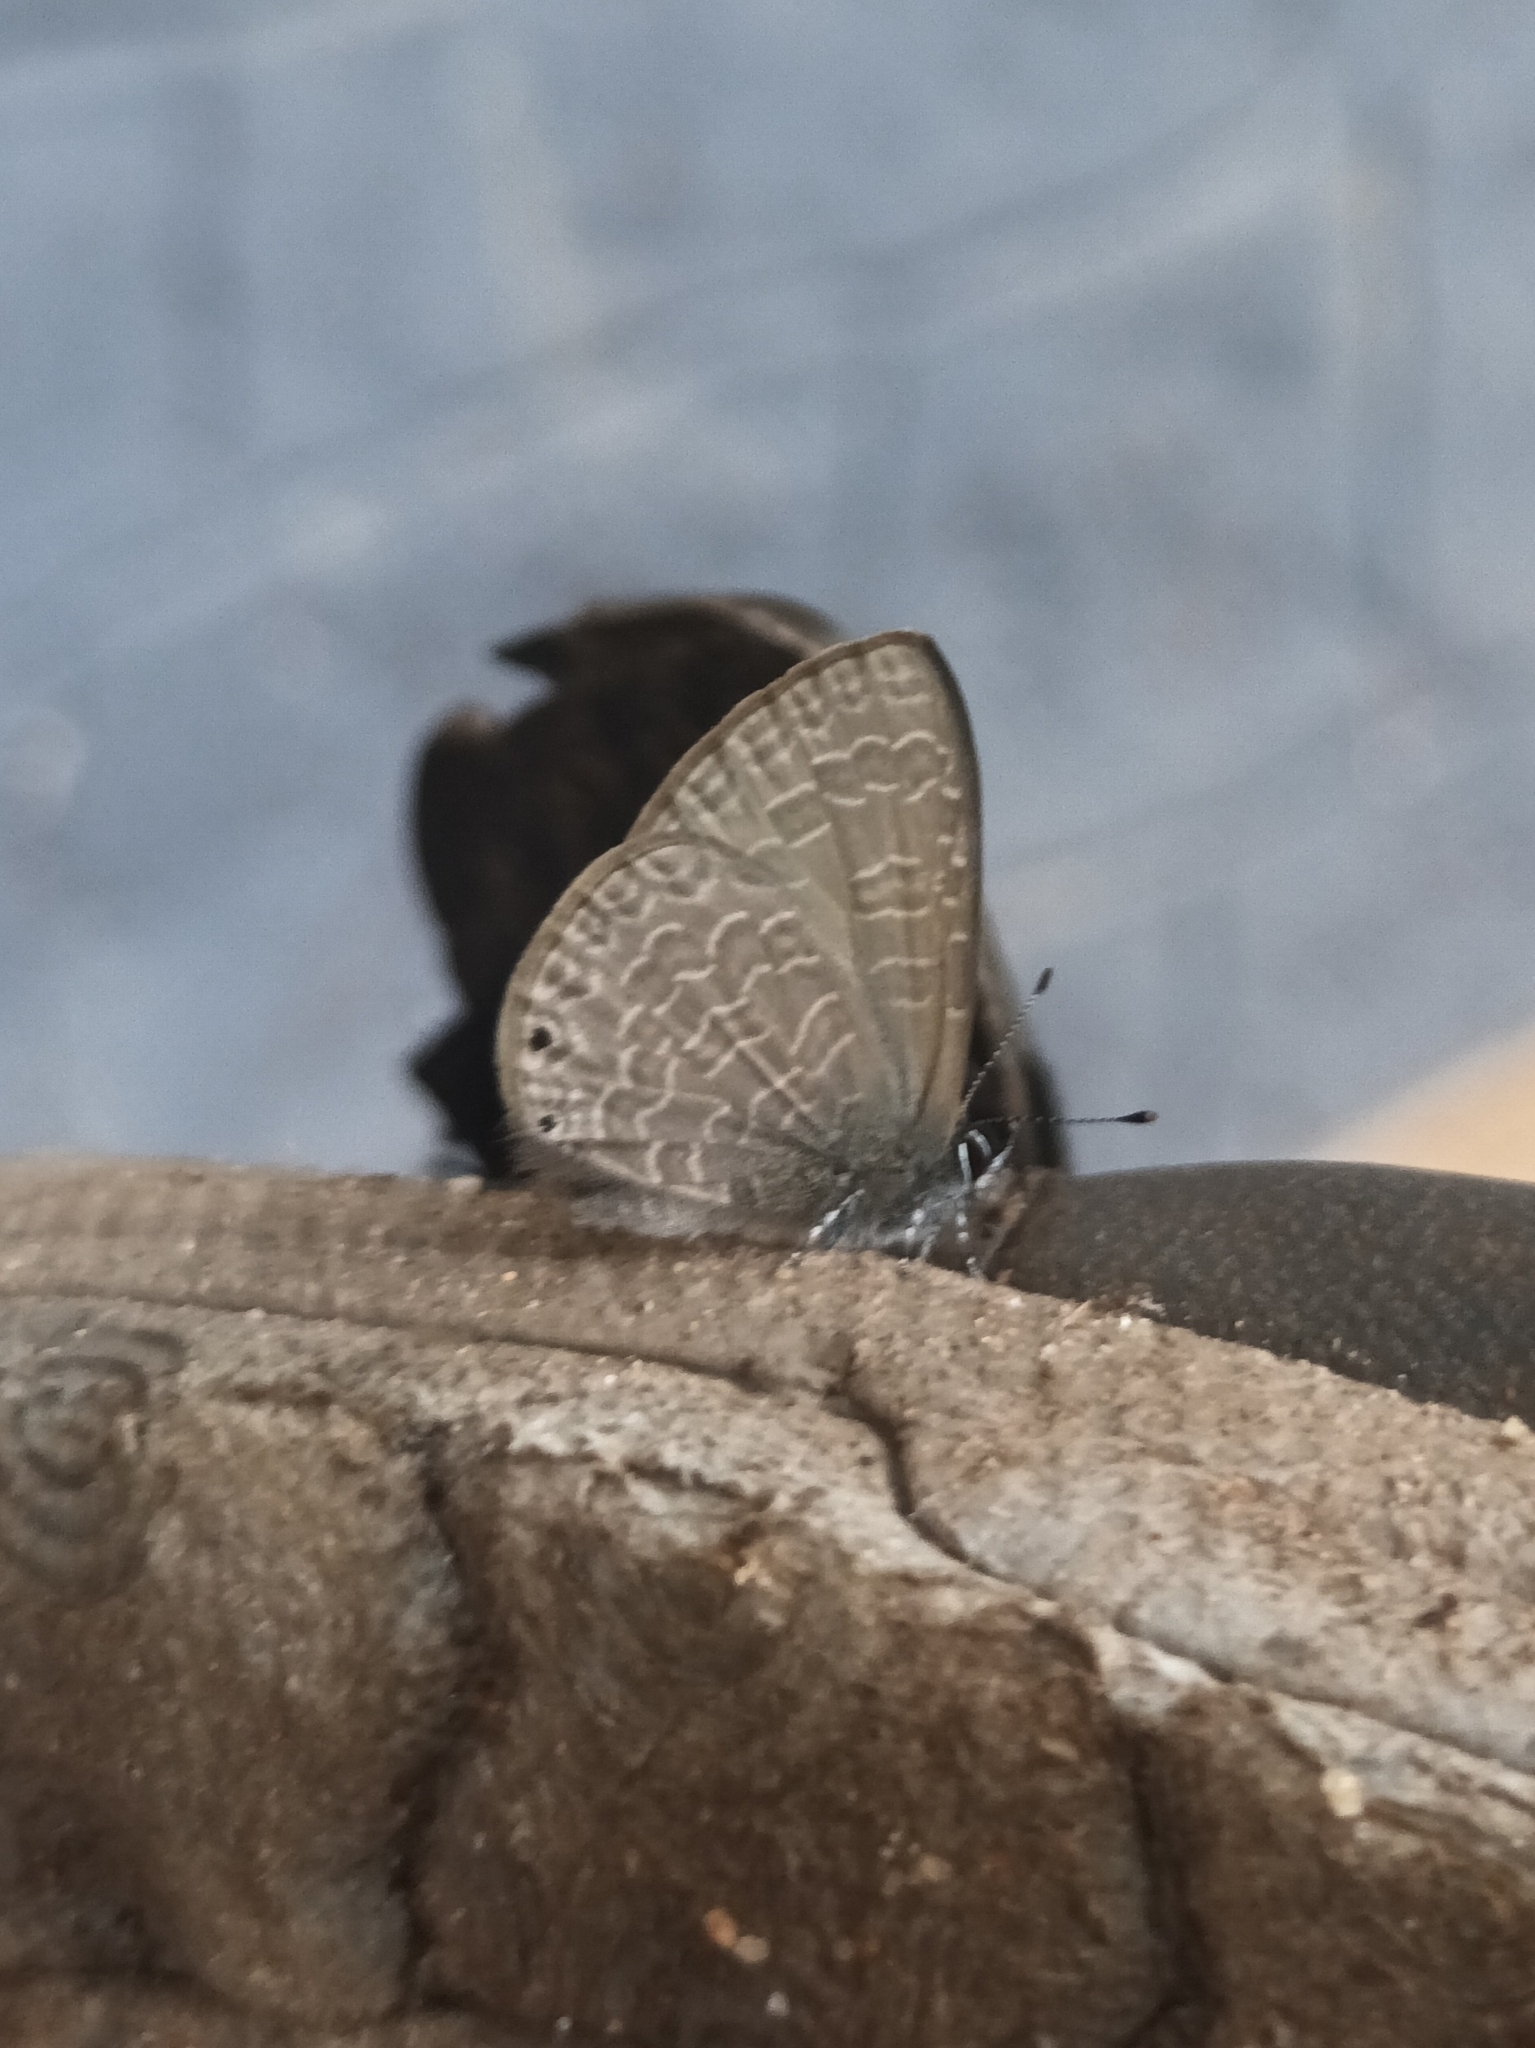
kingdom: Animalia
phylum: Arthropoda
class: Insecta
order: Lepidoptera
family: Lycaenidae
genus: Petrelaea
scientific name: Petrelaea dana
